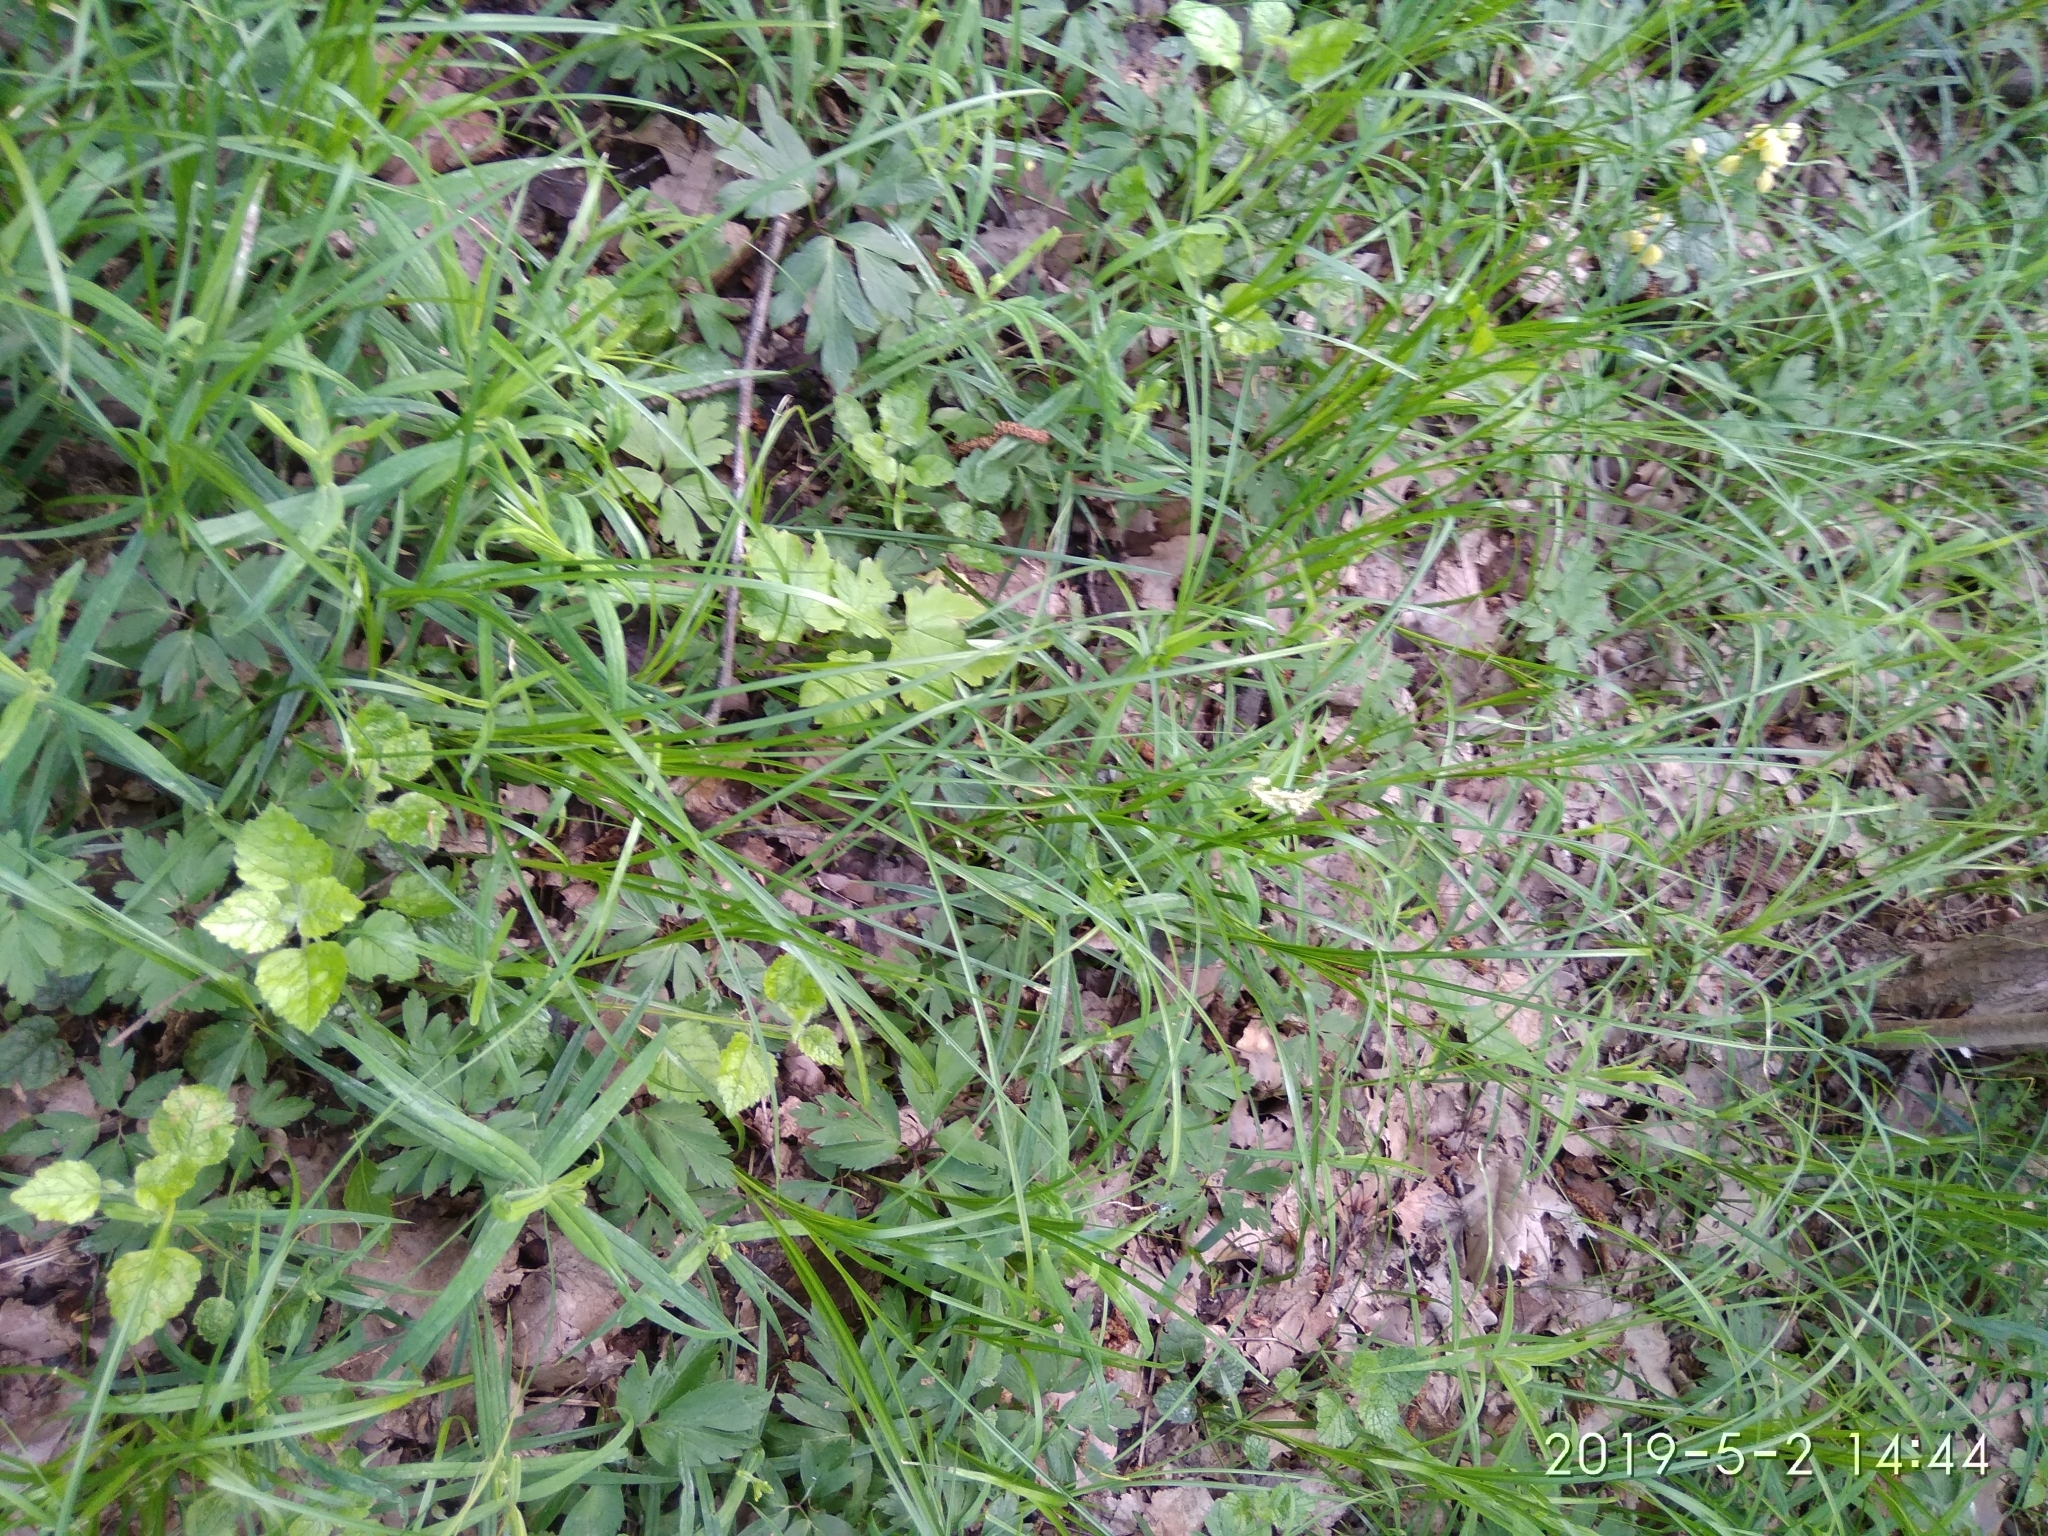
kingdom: Plantae
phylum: Tracheophyta
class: Liliopsida
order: Poales
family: Cyperaceae
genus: Carex
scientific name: Carex brizoides
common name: Quaking-grass sedge
